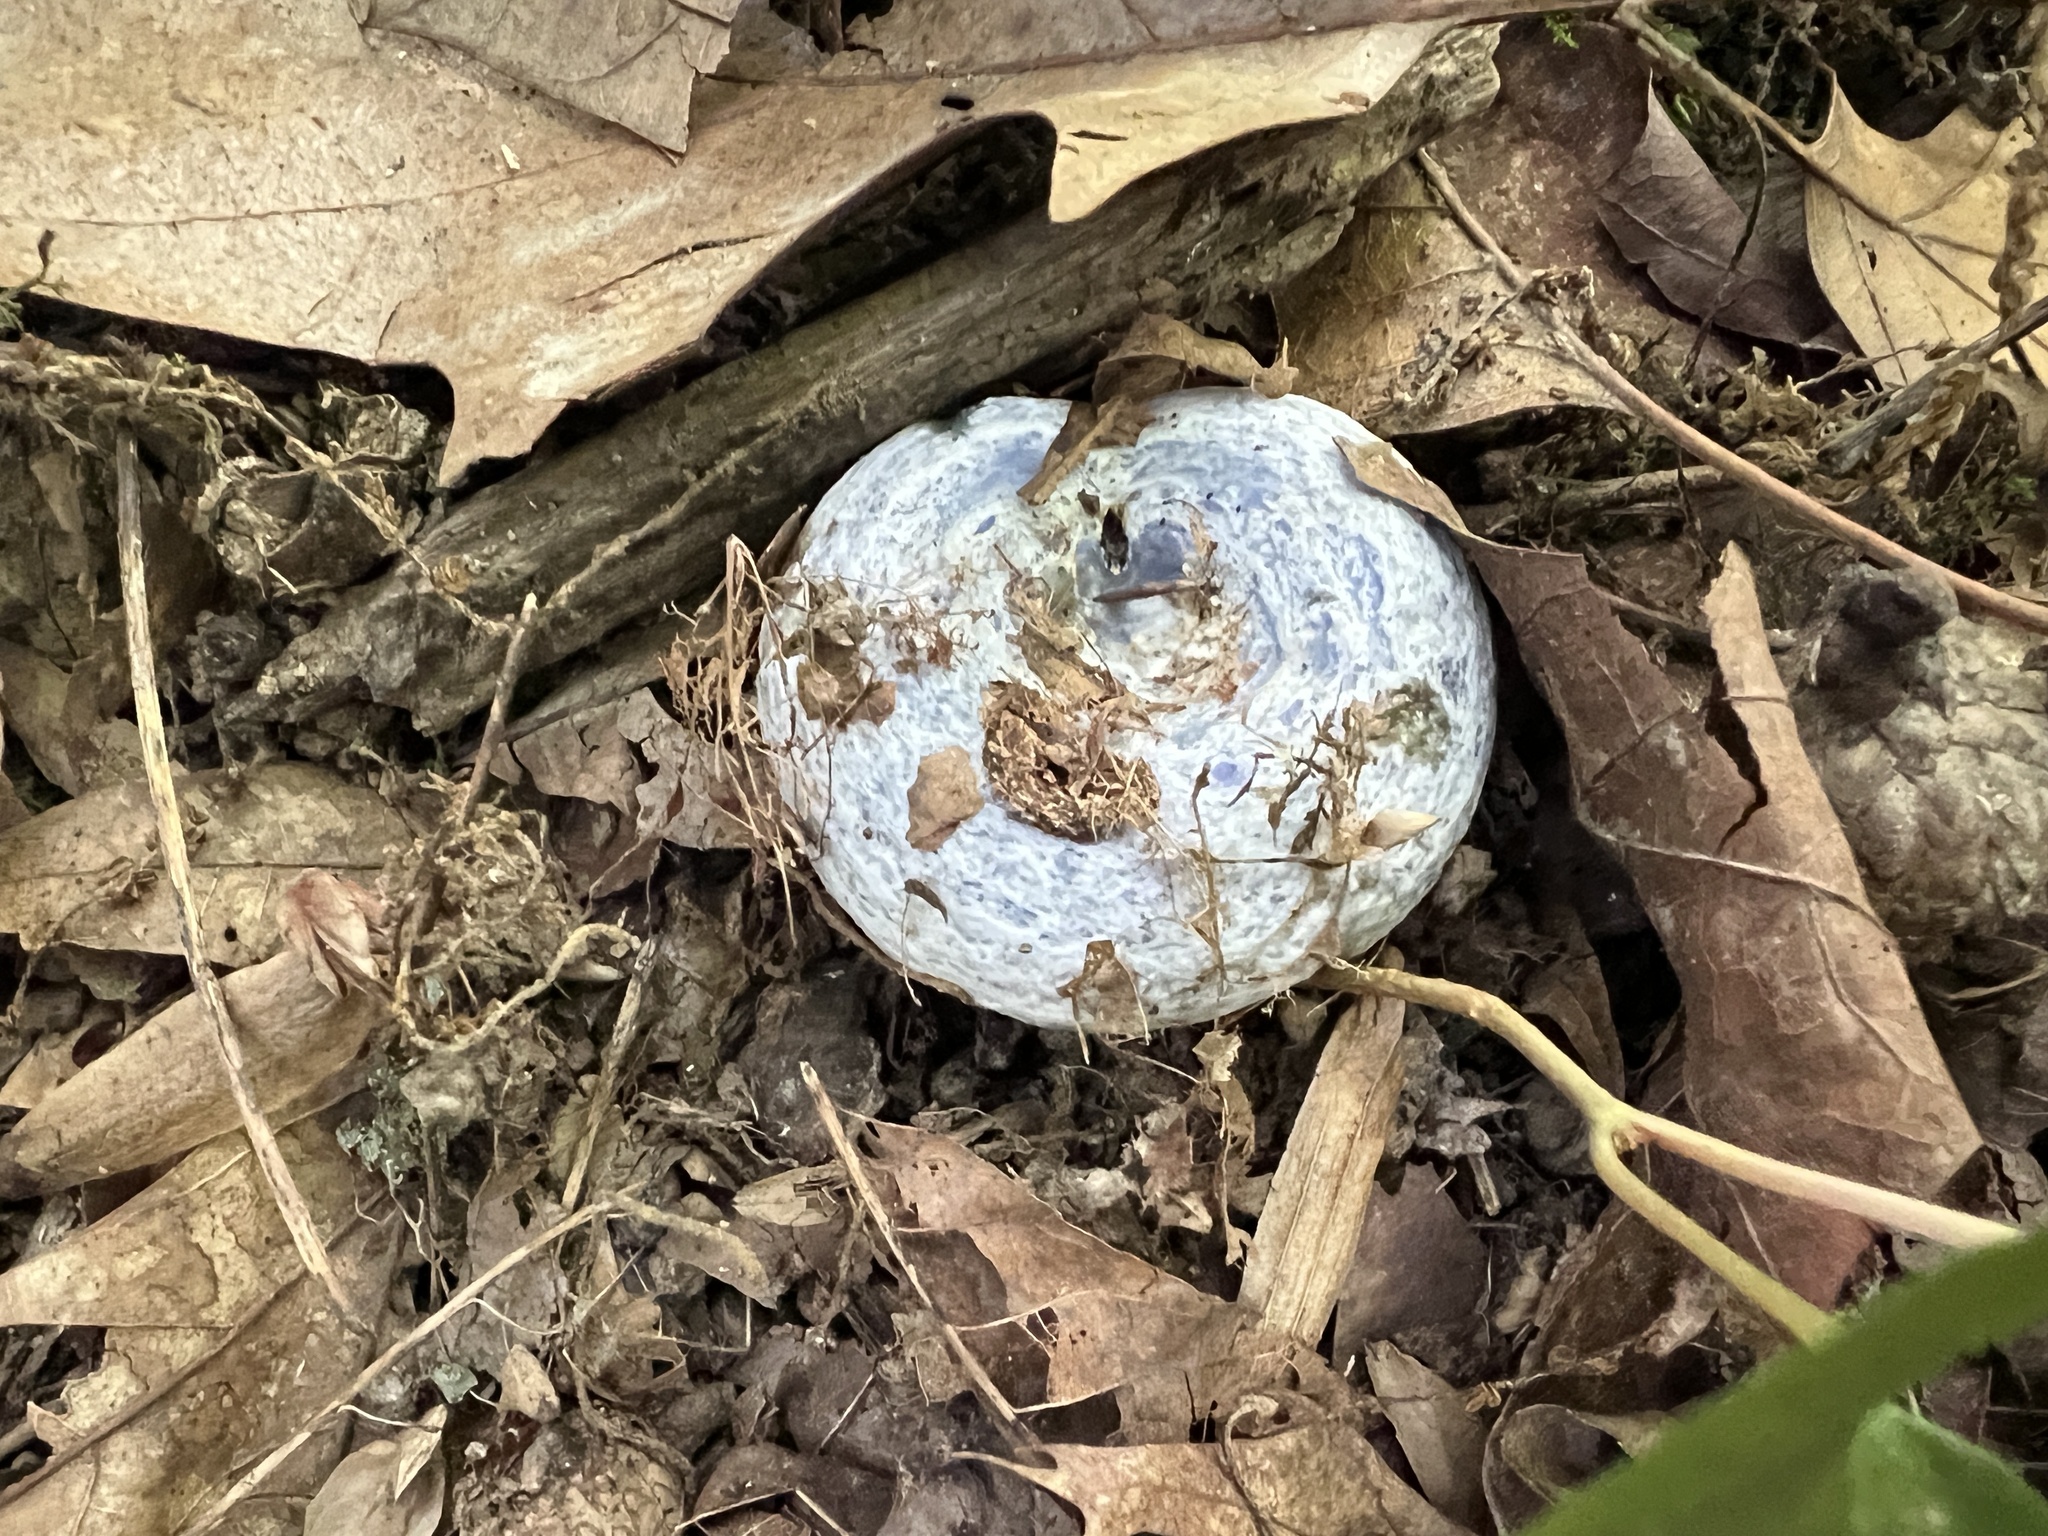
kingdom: Fungi
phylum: Basidiomycota
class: Agaricomycetes
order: Russulales
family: Russulaceae
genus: Lactarius
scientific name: Lactarius indigo
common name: Indigo milk cap
